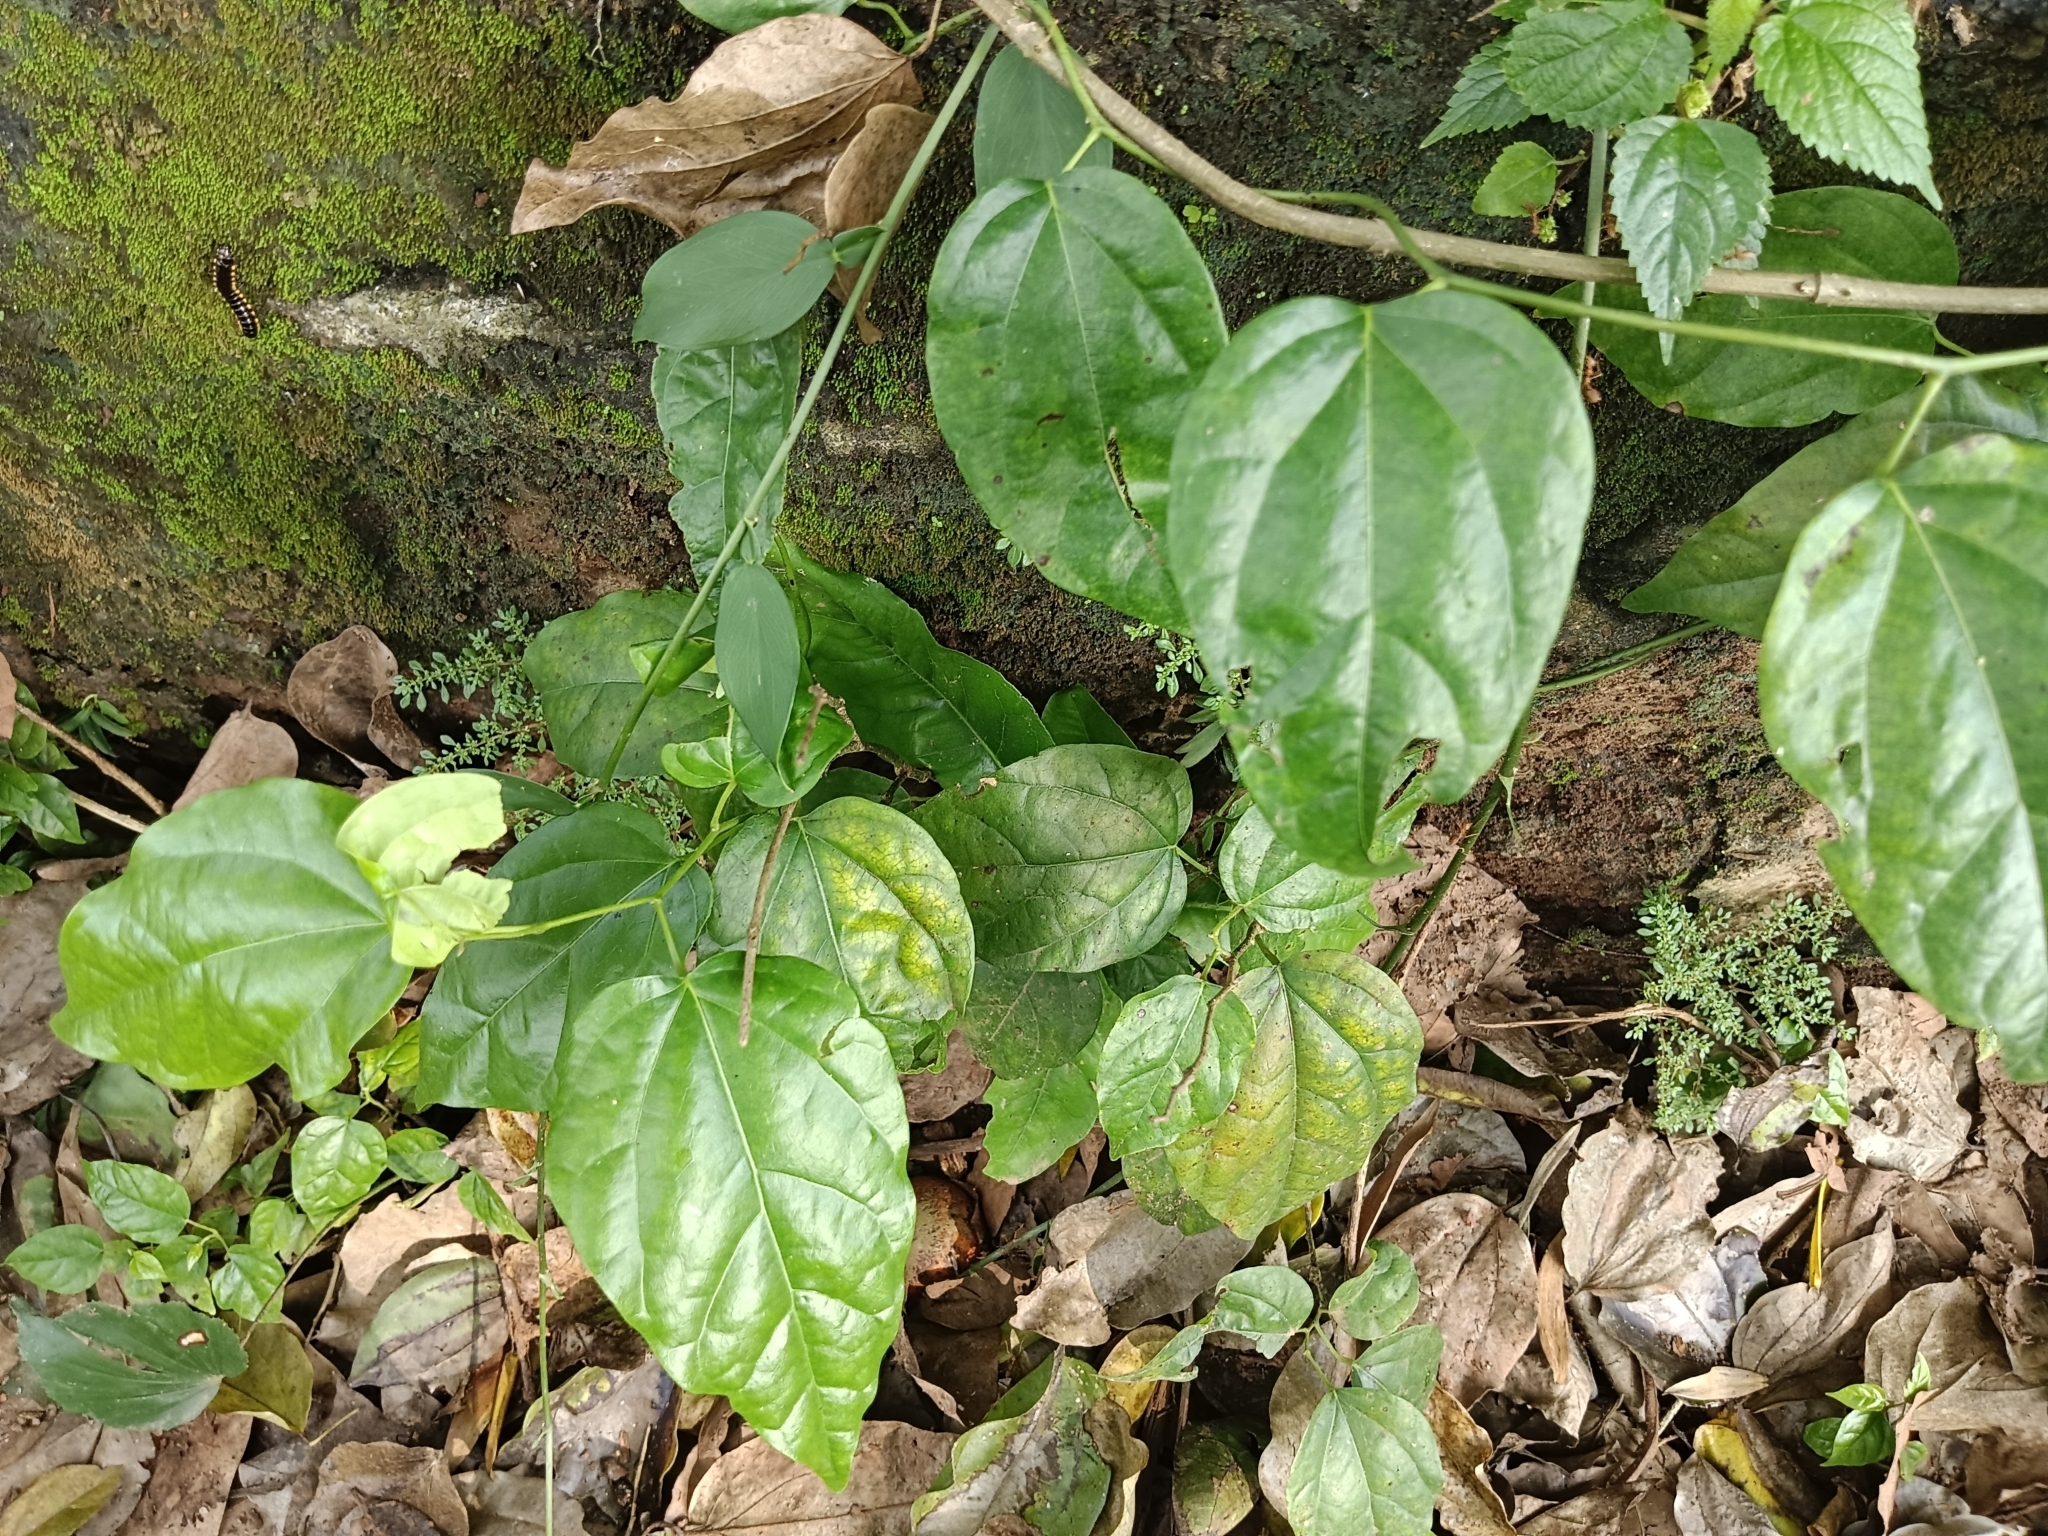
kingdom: Plantae
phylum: Tracheophyta
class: Magnoliopsida
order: Ranunculales
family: Menispermaceae
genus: Tiliacora
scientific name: Tiliacora acuminata
